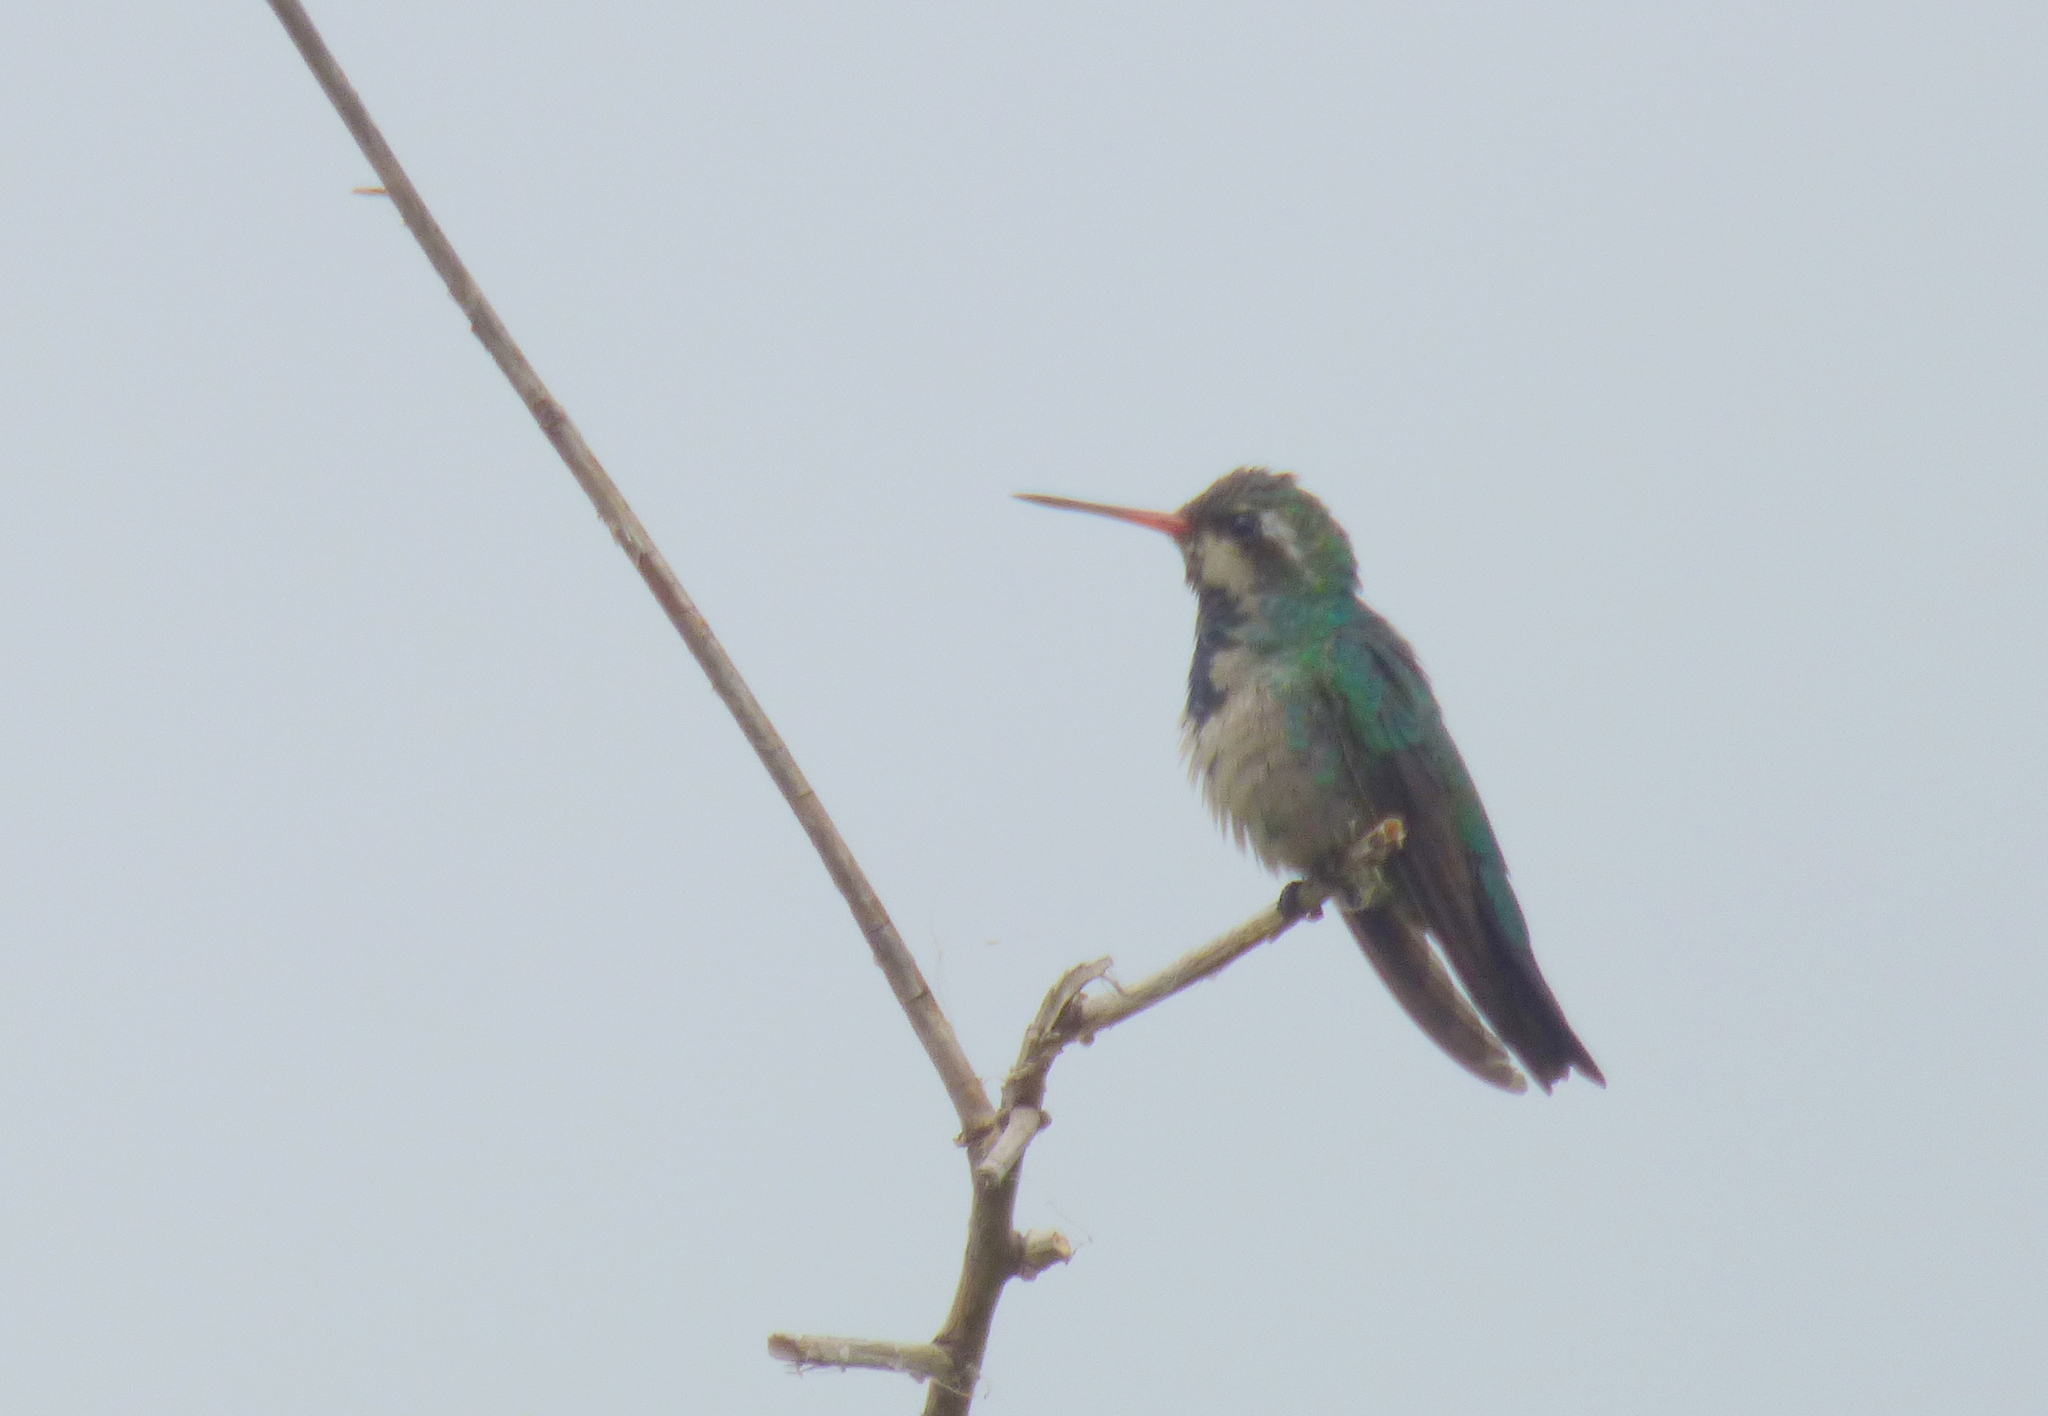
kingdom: Animalia
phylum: Chordata
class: Aves
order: Apodiformes
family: Trochilidae
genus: Chlorostilbon
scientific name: Chlorostilbon lucidus
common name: Glittering-bellied emerald
